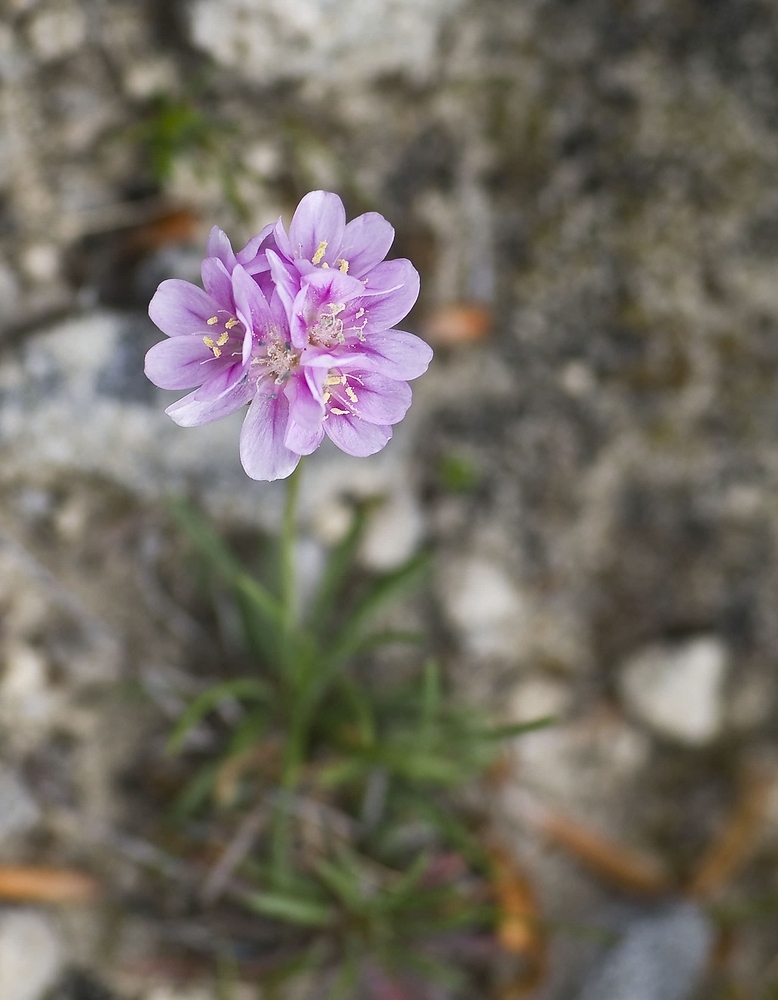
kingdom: Plantae
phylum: Tracheophyta
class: Magnoliopsida
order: Caryophyllales
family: Plumbaginaceae
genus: Armeria
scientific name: Armeria girardii
